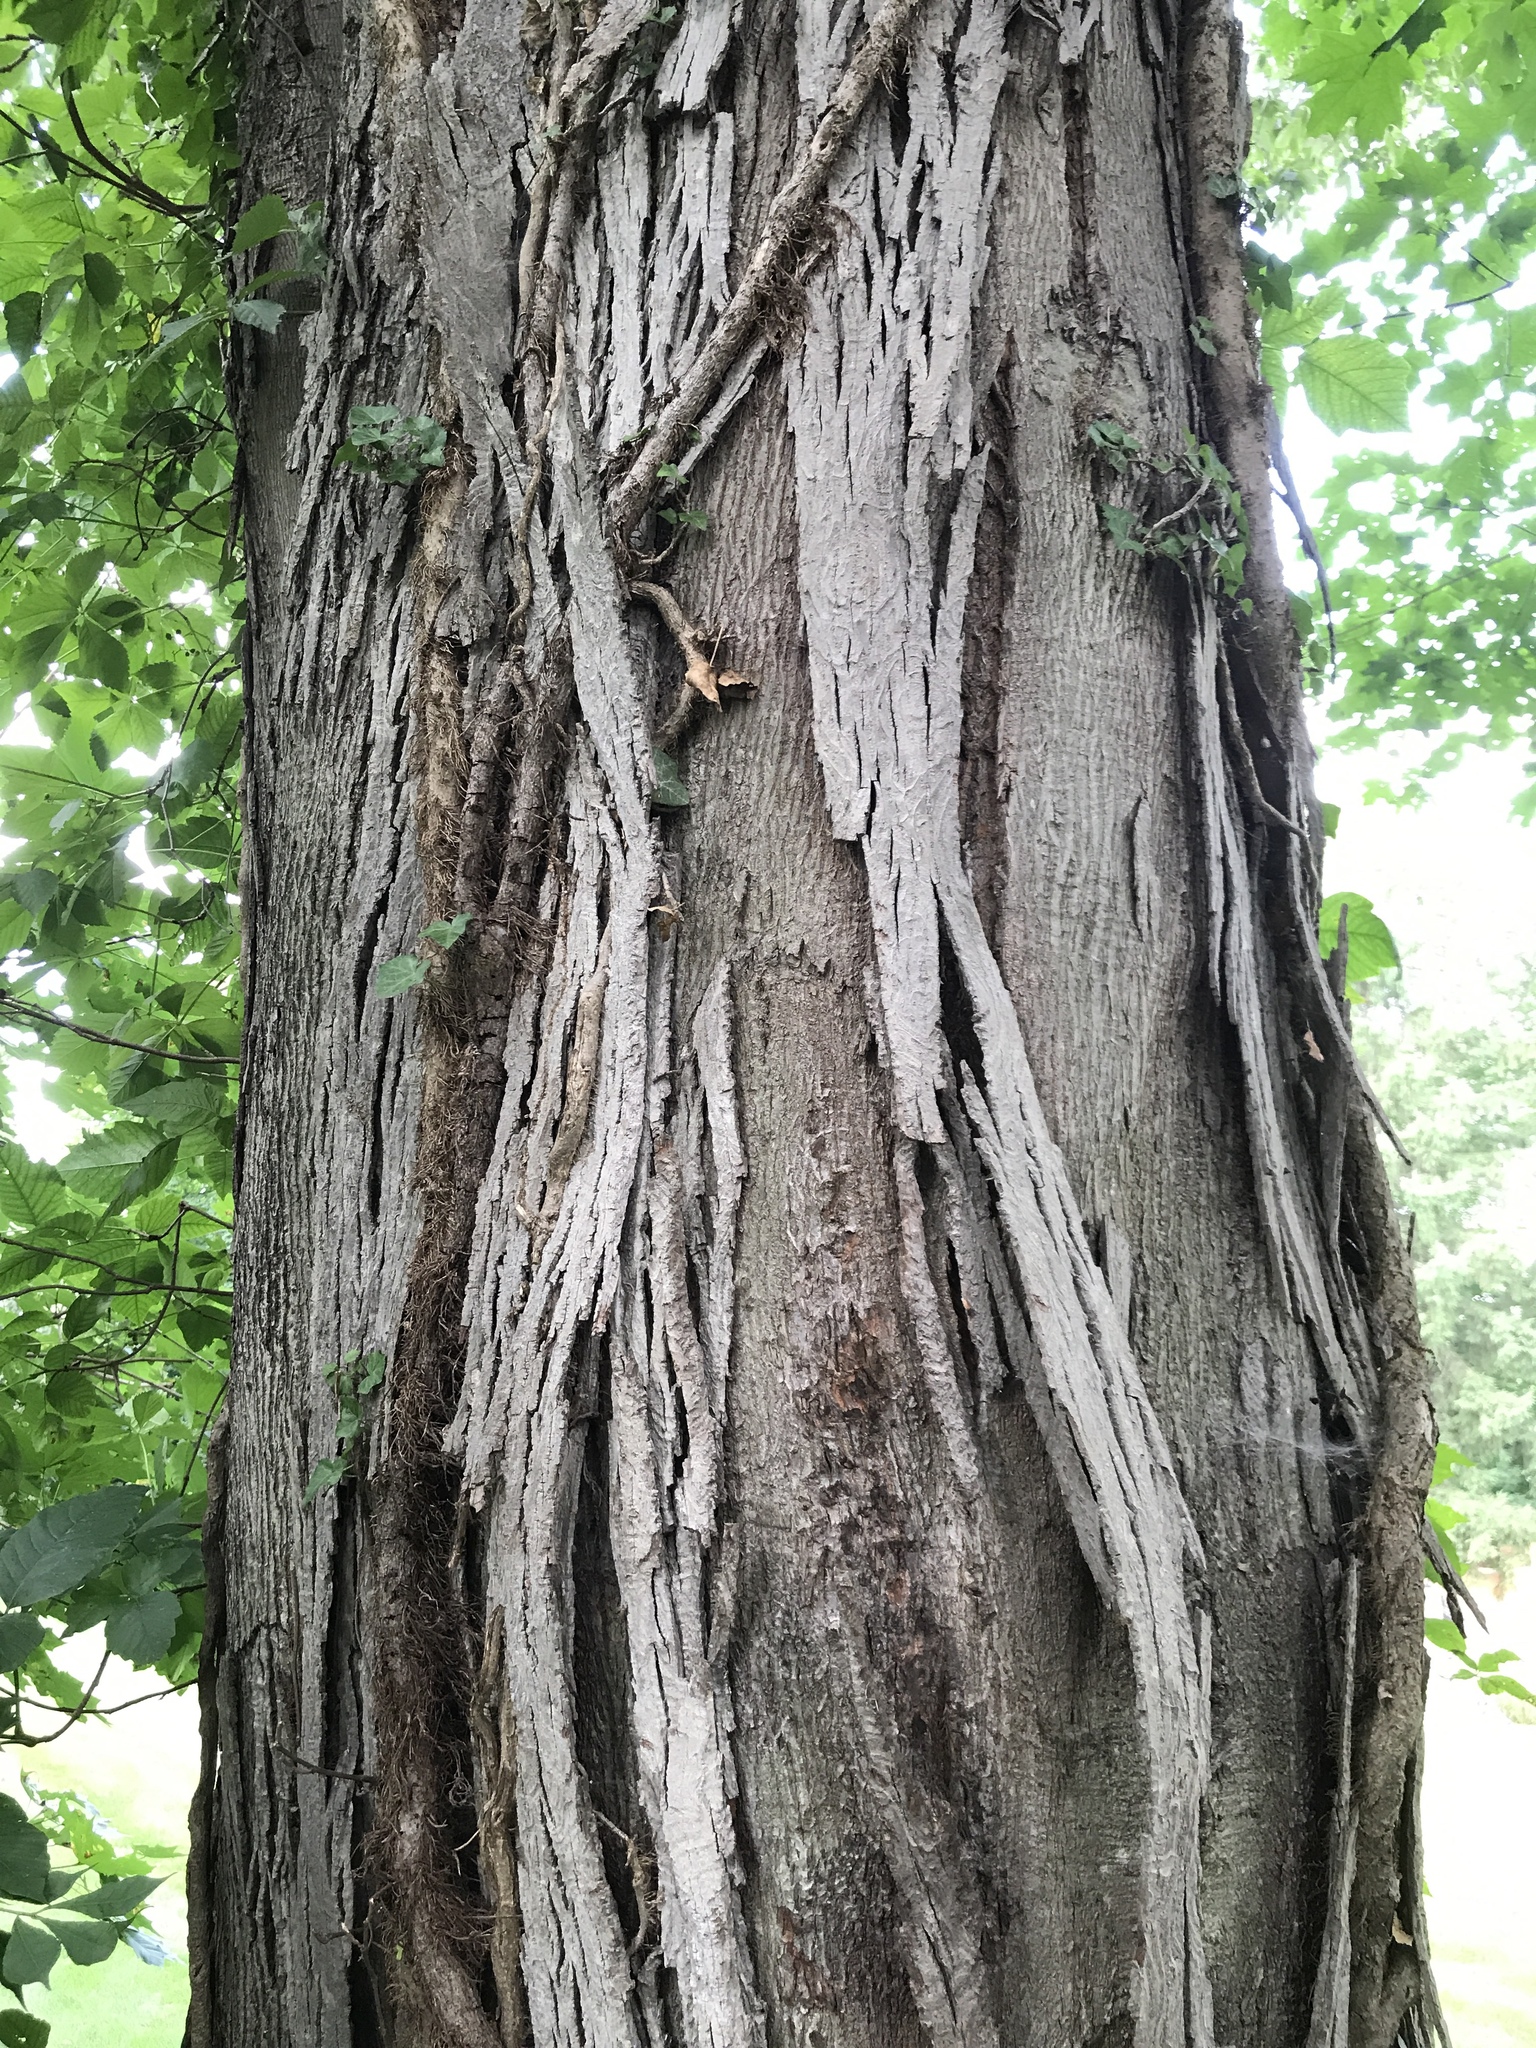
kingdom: Plantae
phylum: Tracheophyta
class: Magnoliopsida
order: Fagales
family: Juglandaceae
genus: Carya
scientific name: Carya ovata
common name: Shagbark hickory
